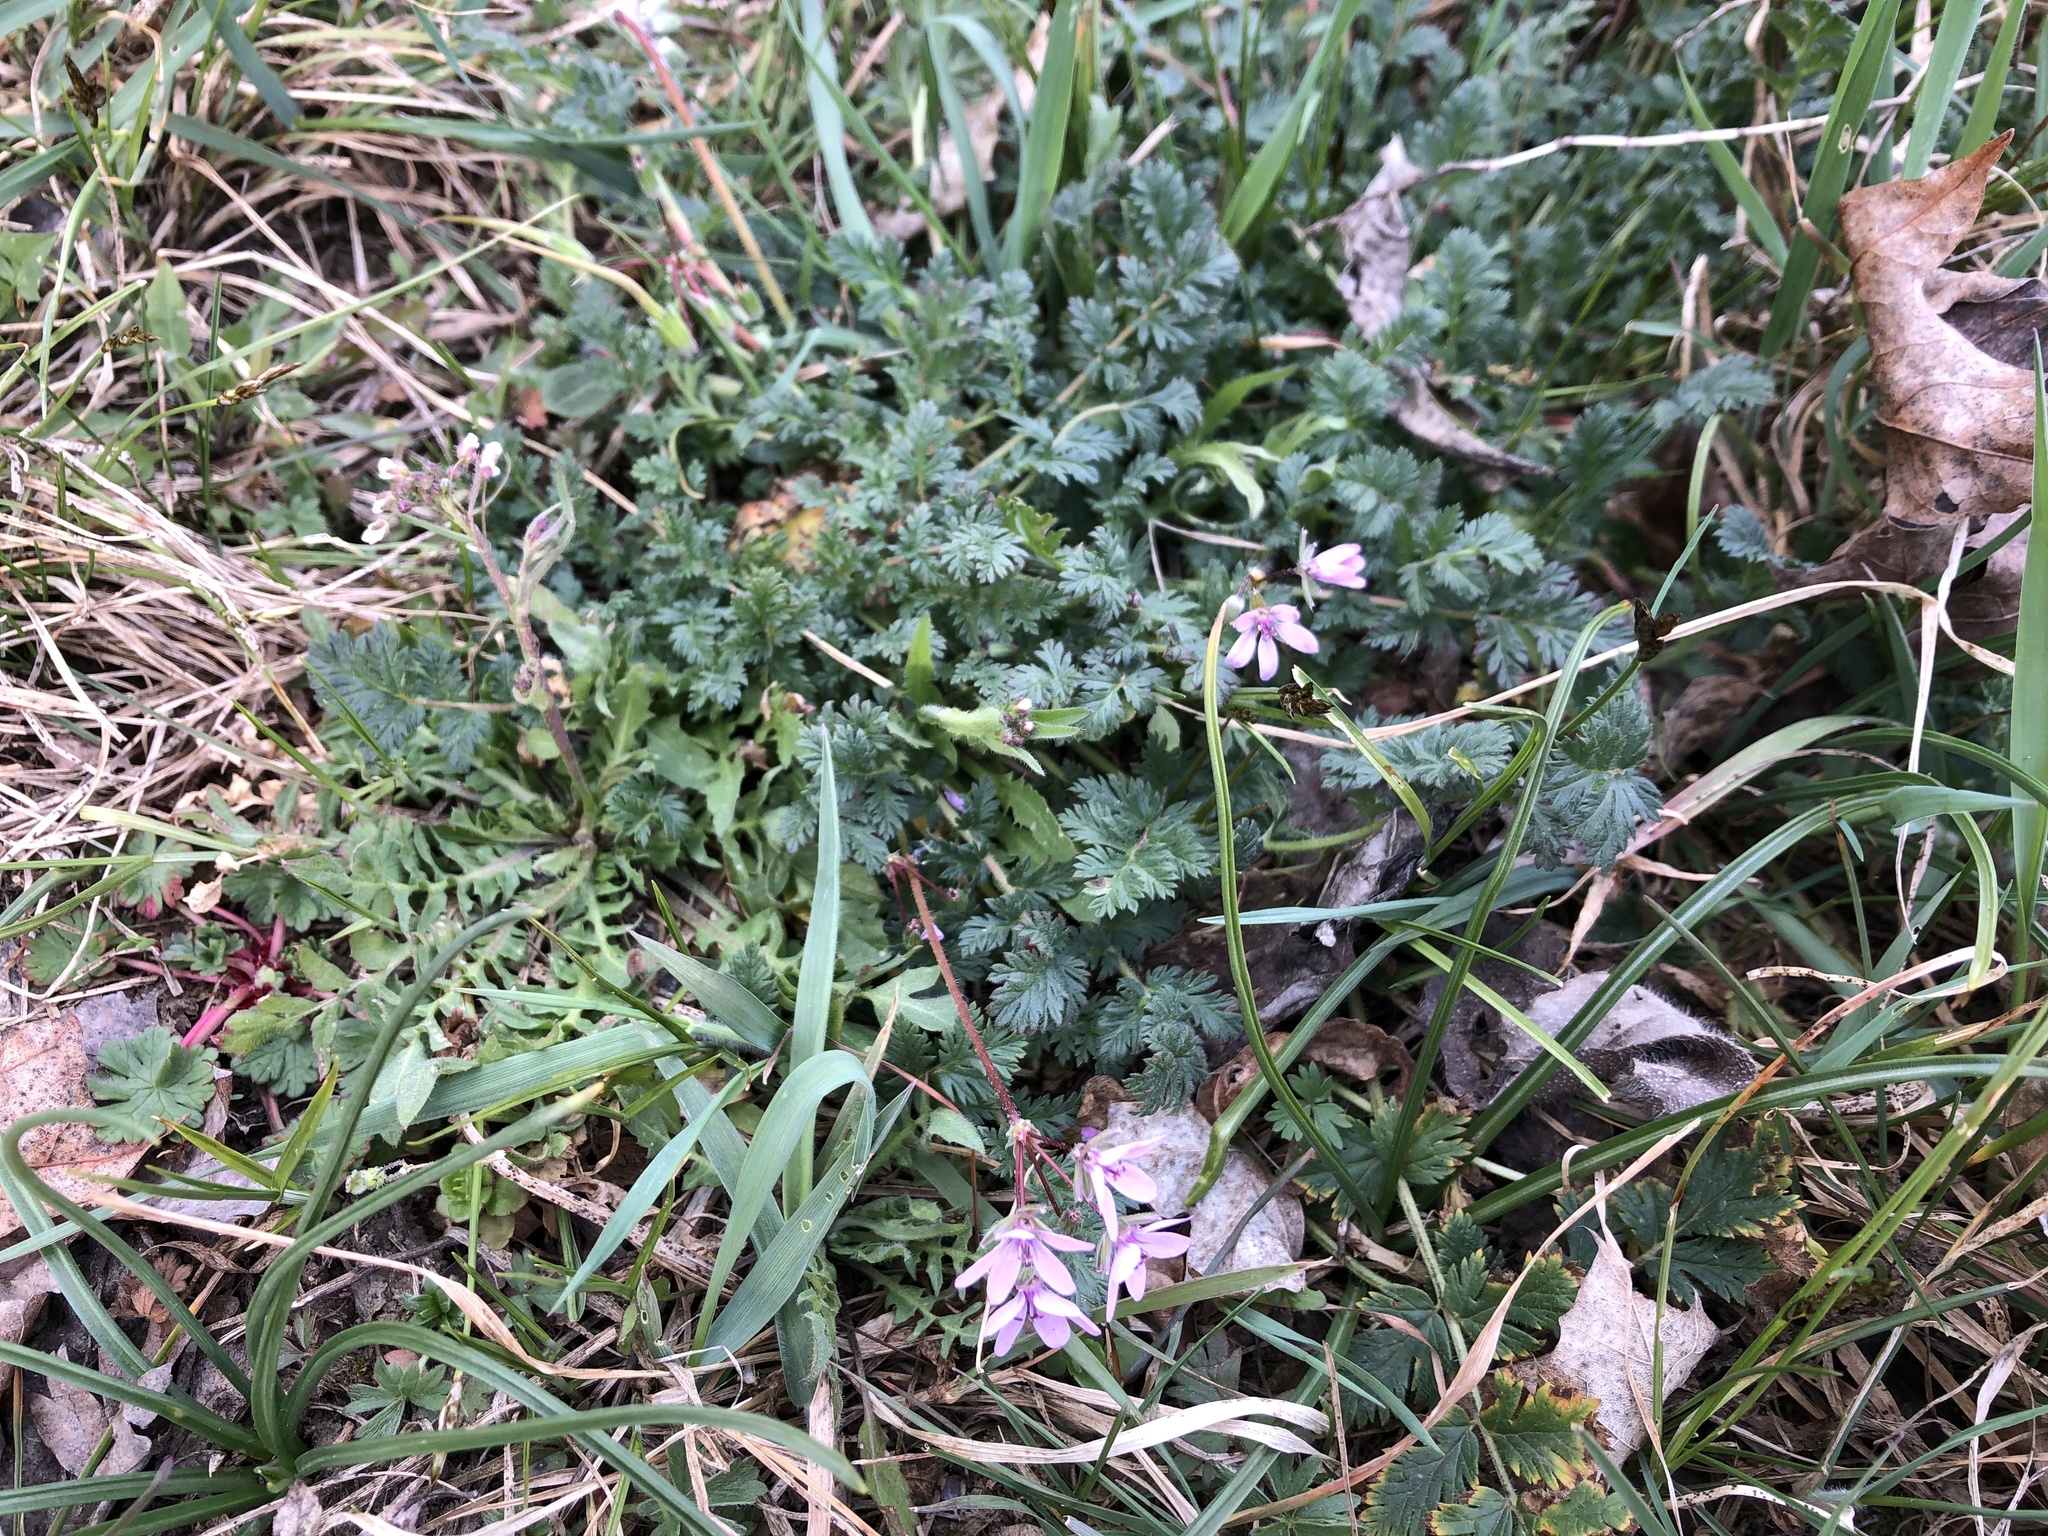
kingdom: Plantae
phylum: Tracheophyta
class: Magnoliopsida
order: Geraniales
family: Geraniaceae
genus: Erodium
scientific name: Erodium cicutarium
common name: Common stork's-bill
